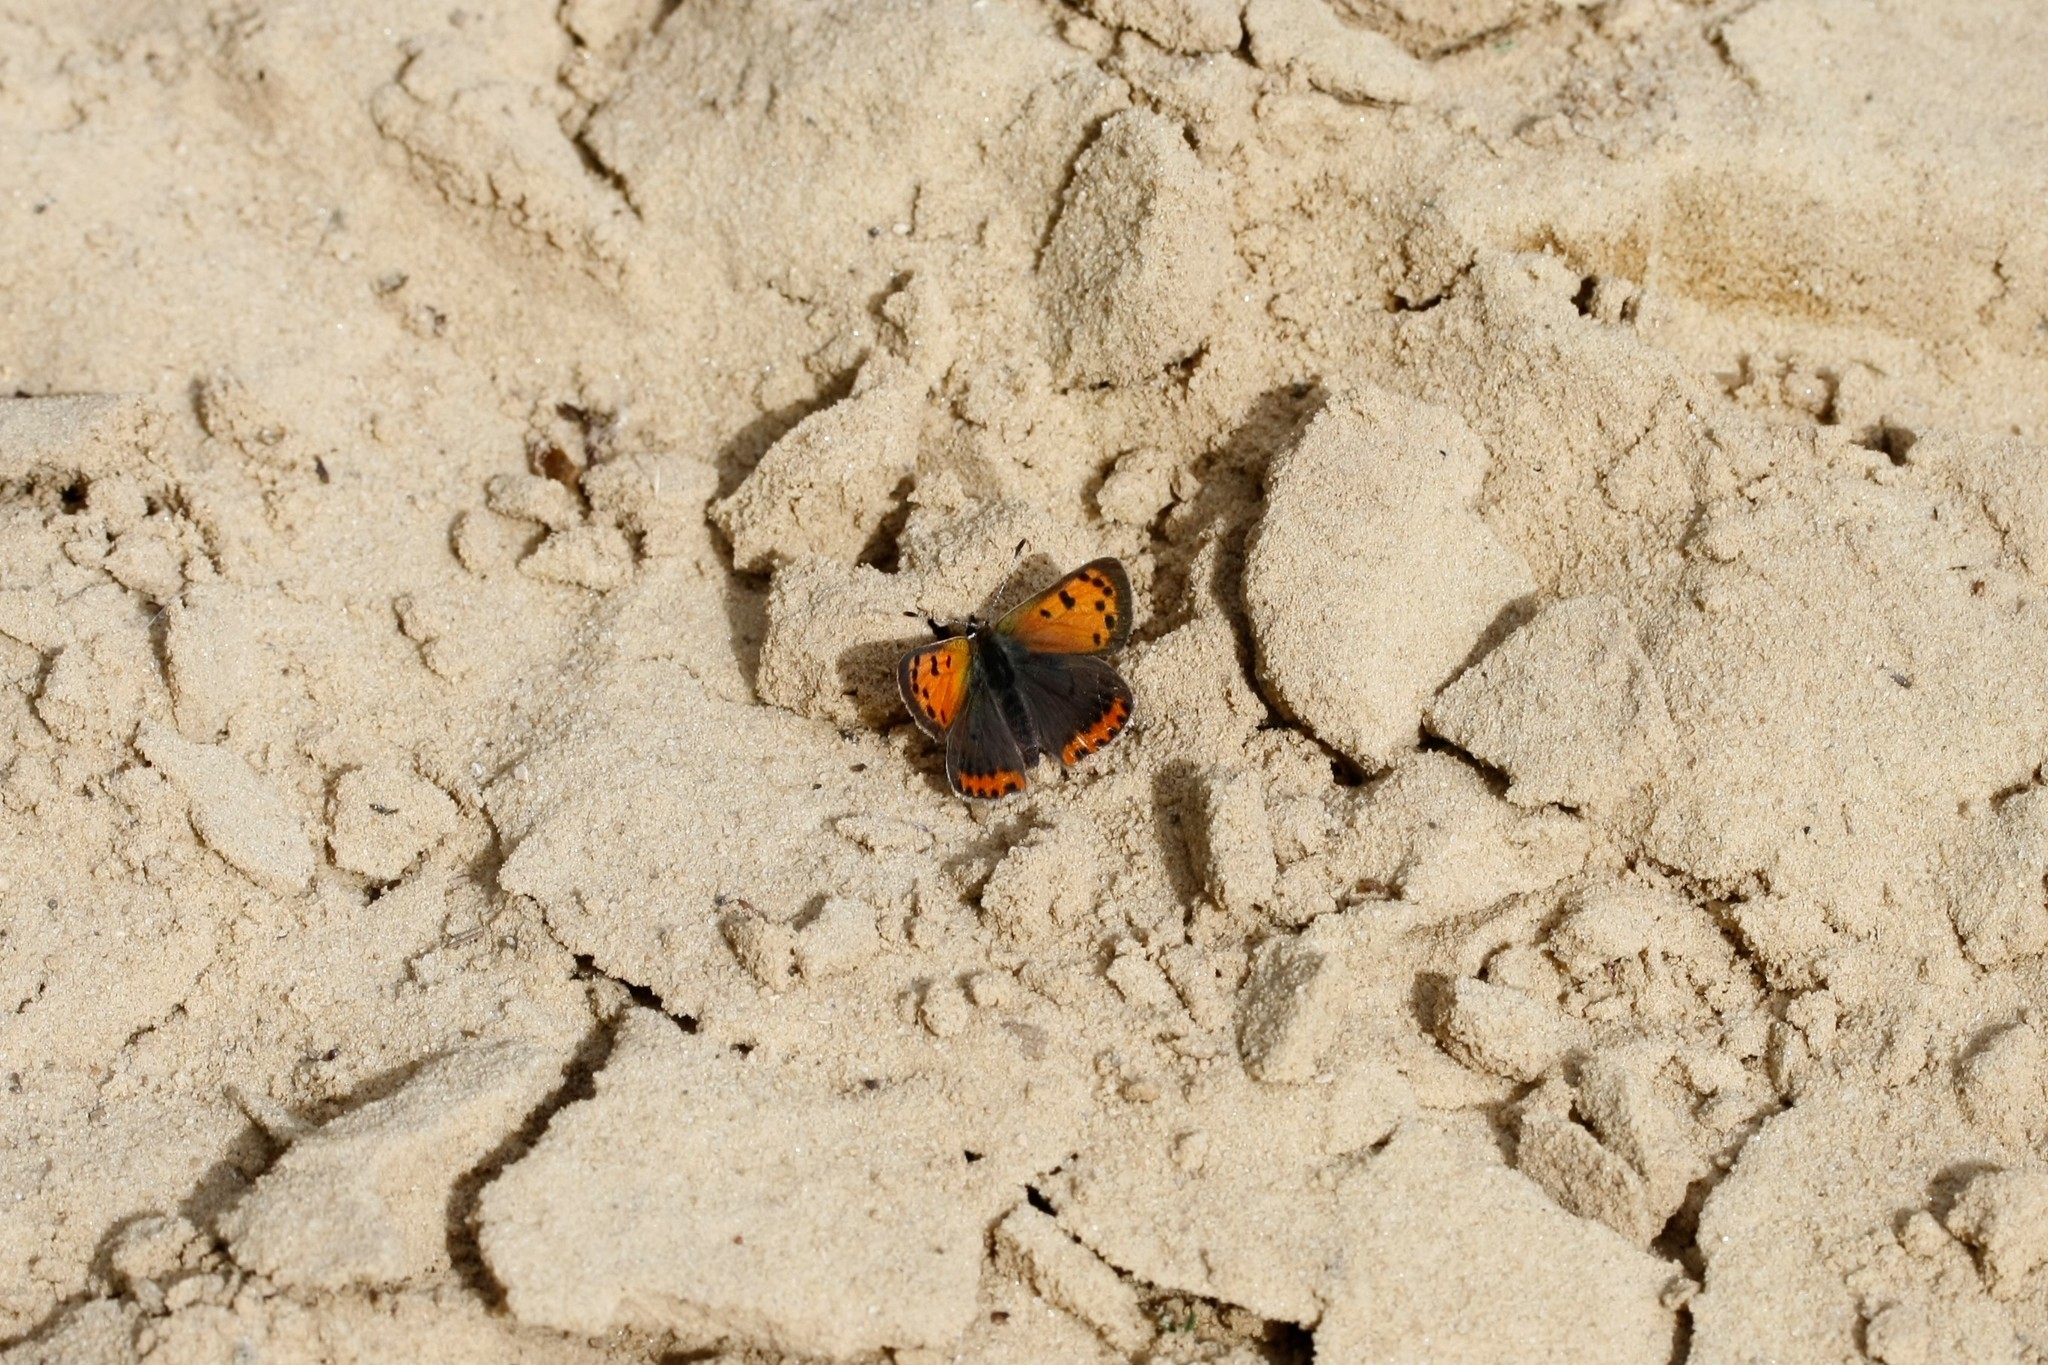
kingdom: Animalia
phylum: Arthropoda
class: Insecta
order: Lepidoptera
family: Lycaenidae
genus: Lycaena
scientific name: Lycaena phlaeas
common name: Small copper
